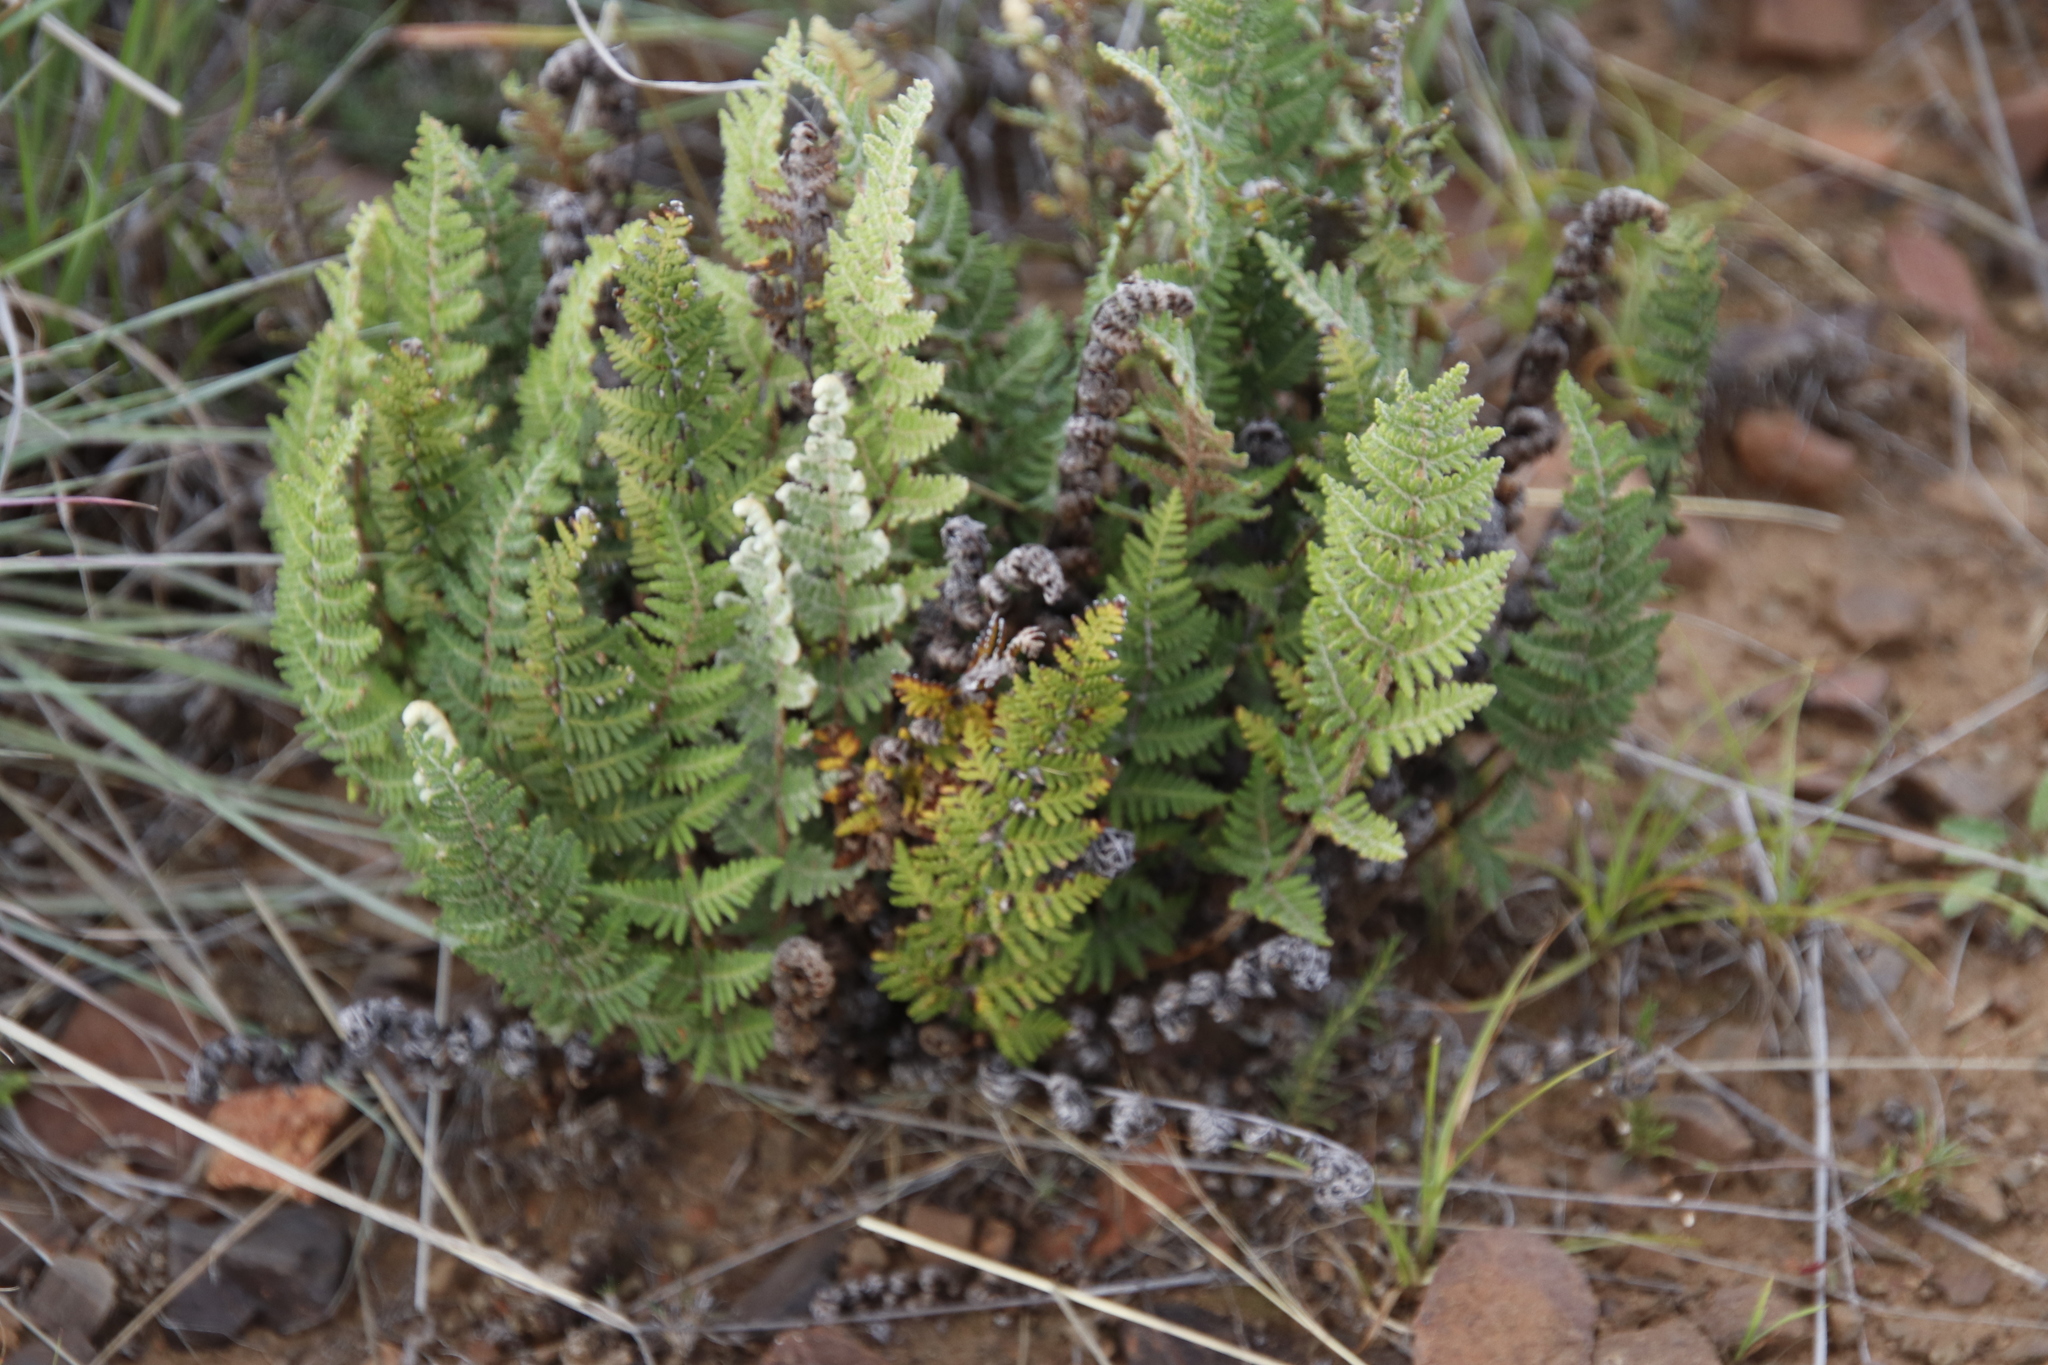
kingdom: Plantae
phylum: Tracheophyta
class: Polypodiopsida
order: Polypodiales
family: Pteridaceae
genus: Cheilanthes
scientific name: Cheilanthes eckloniana
